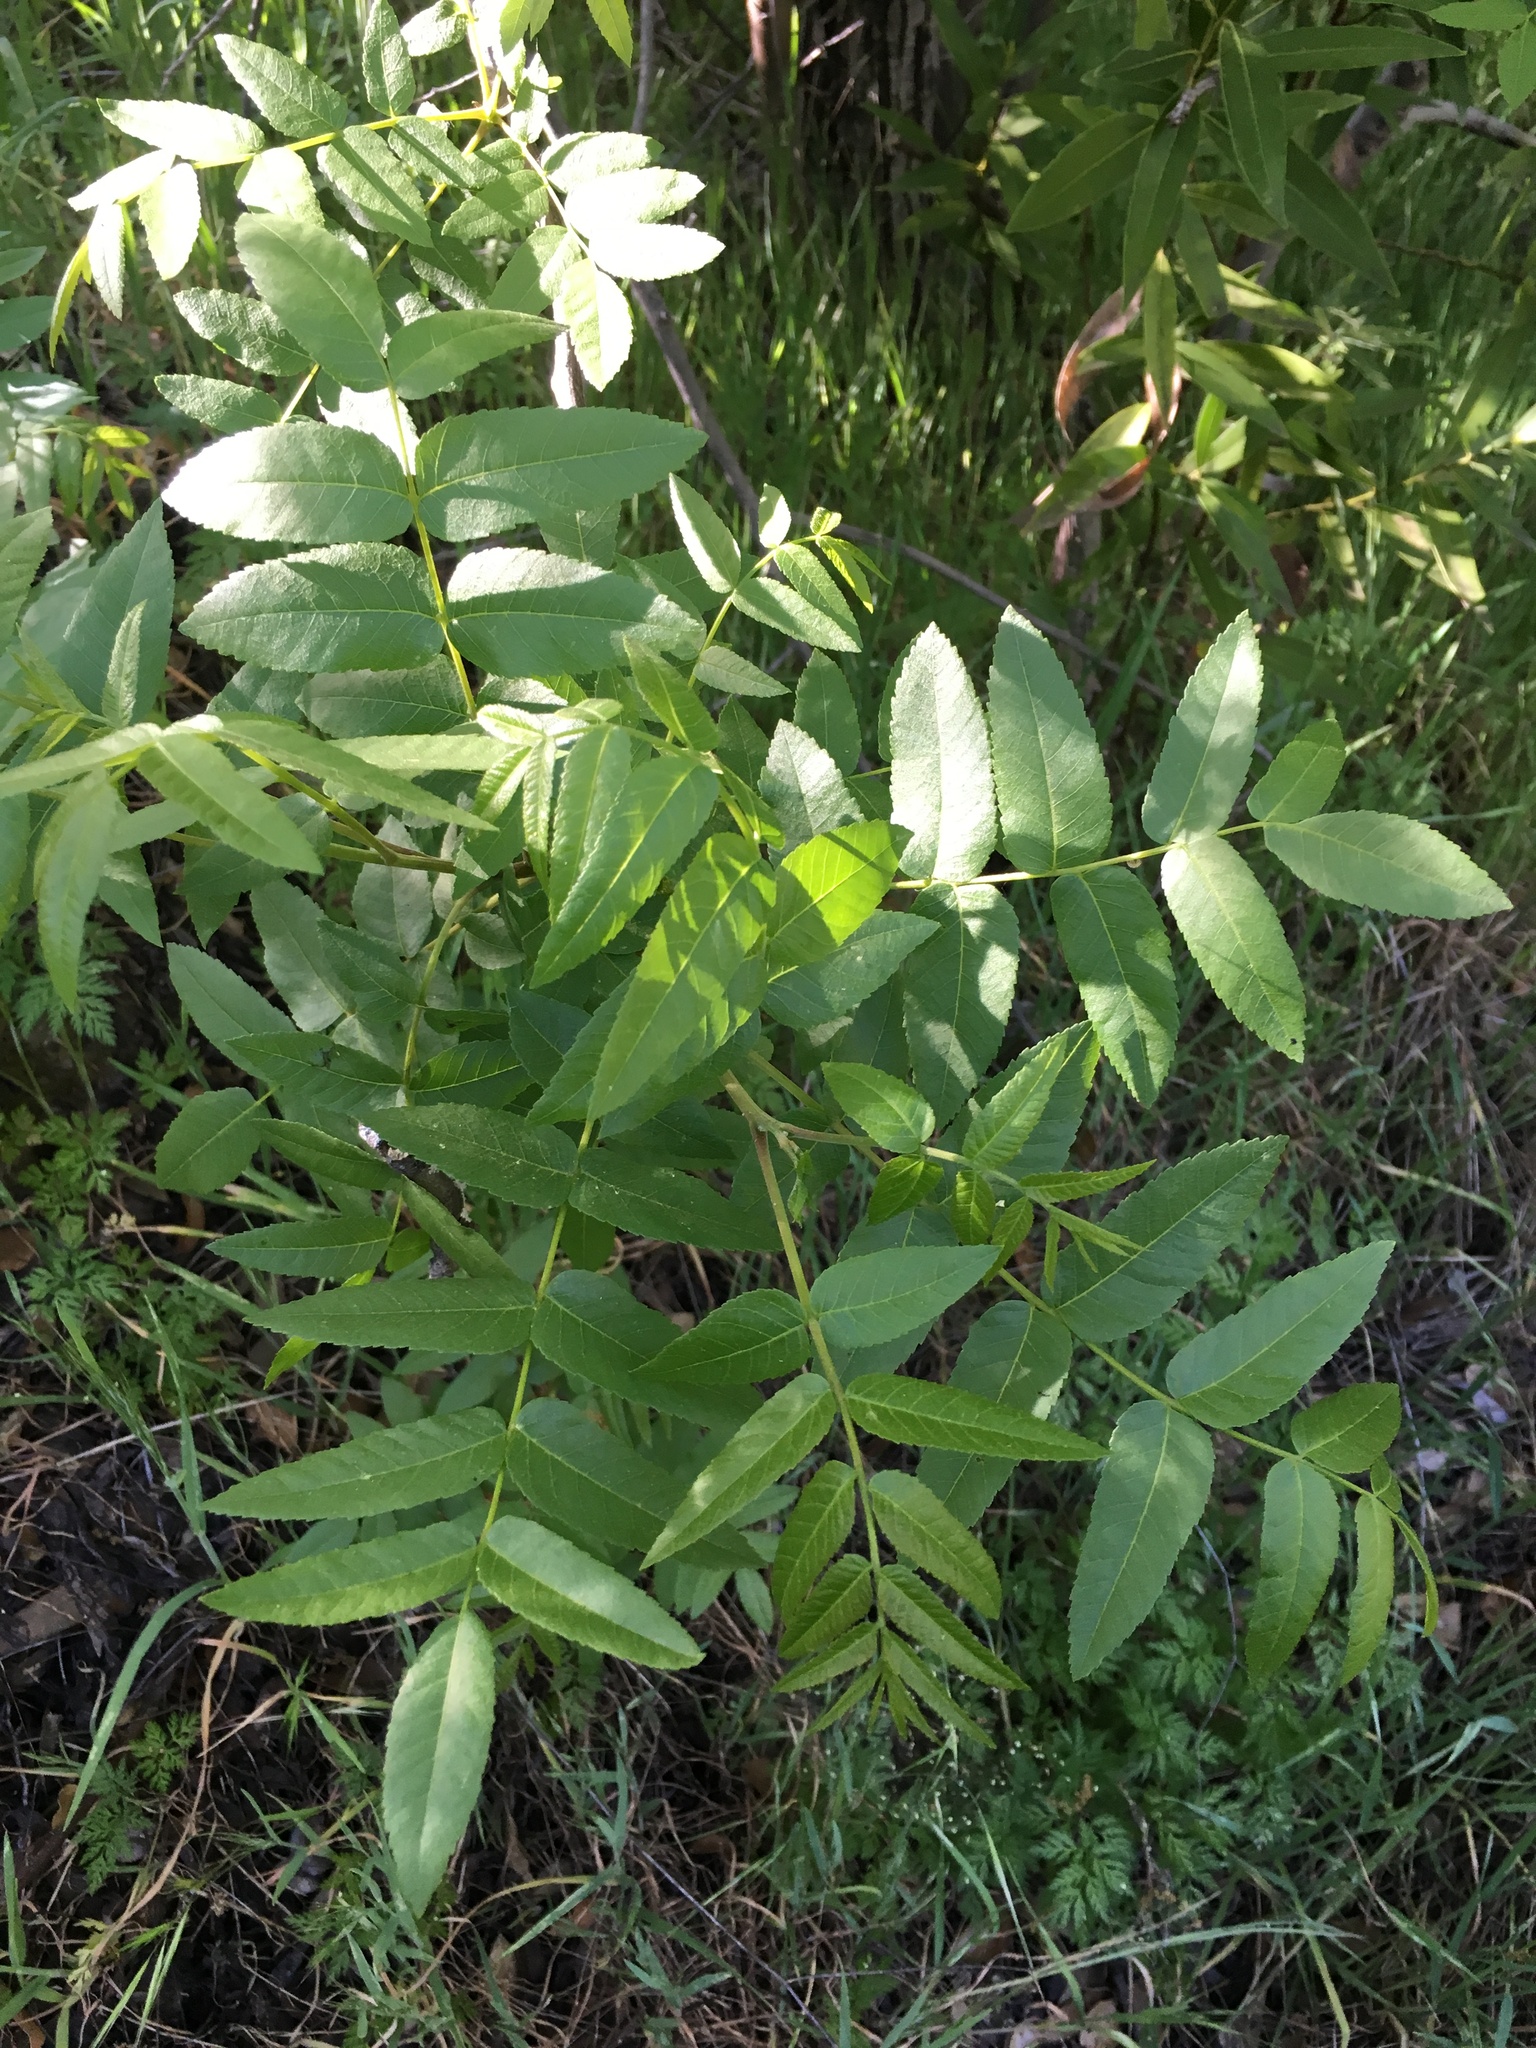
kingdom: Plantae
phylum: Tracheophyta
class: Magnoliopsida
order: Fagales
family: Juglandaceae
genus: Juglans
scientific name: Juglans californica
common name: Southern california black walnut
